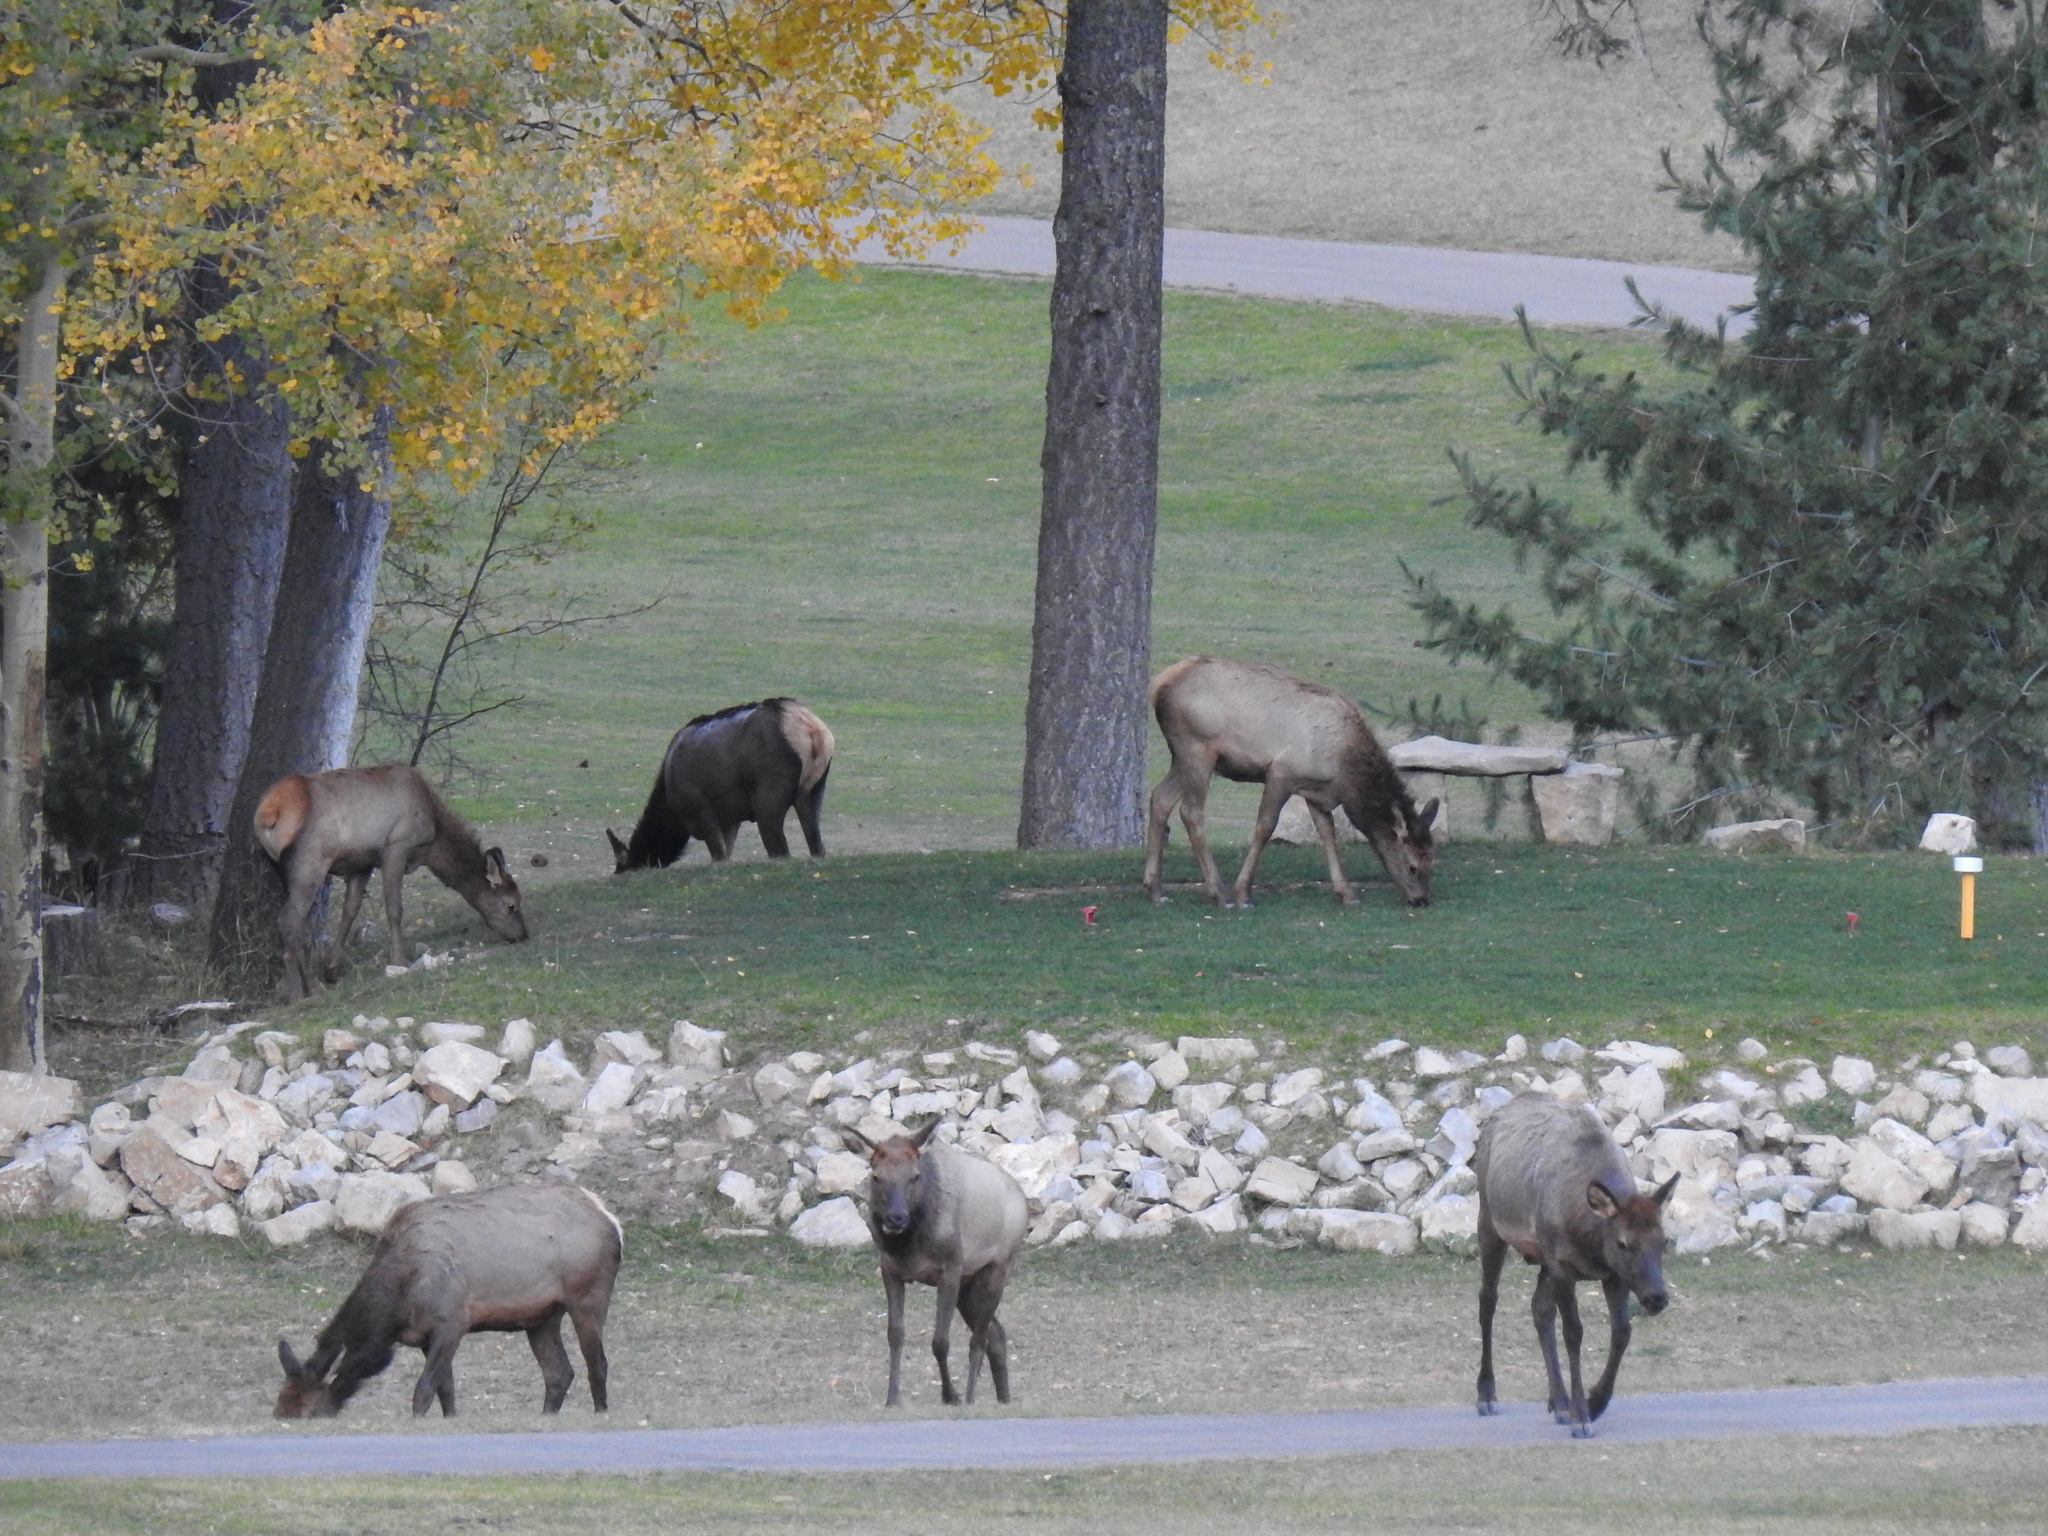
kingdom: Animalia
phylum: Chordata
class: Mammalia
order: Artiodactyla
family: Cervidae
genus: Cervus
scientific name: Cervus elaphus
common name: Red deer
